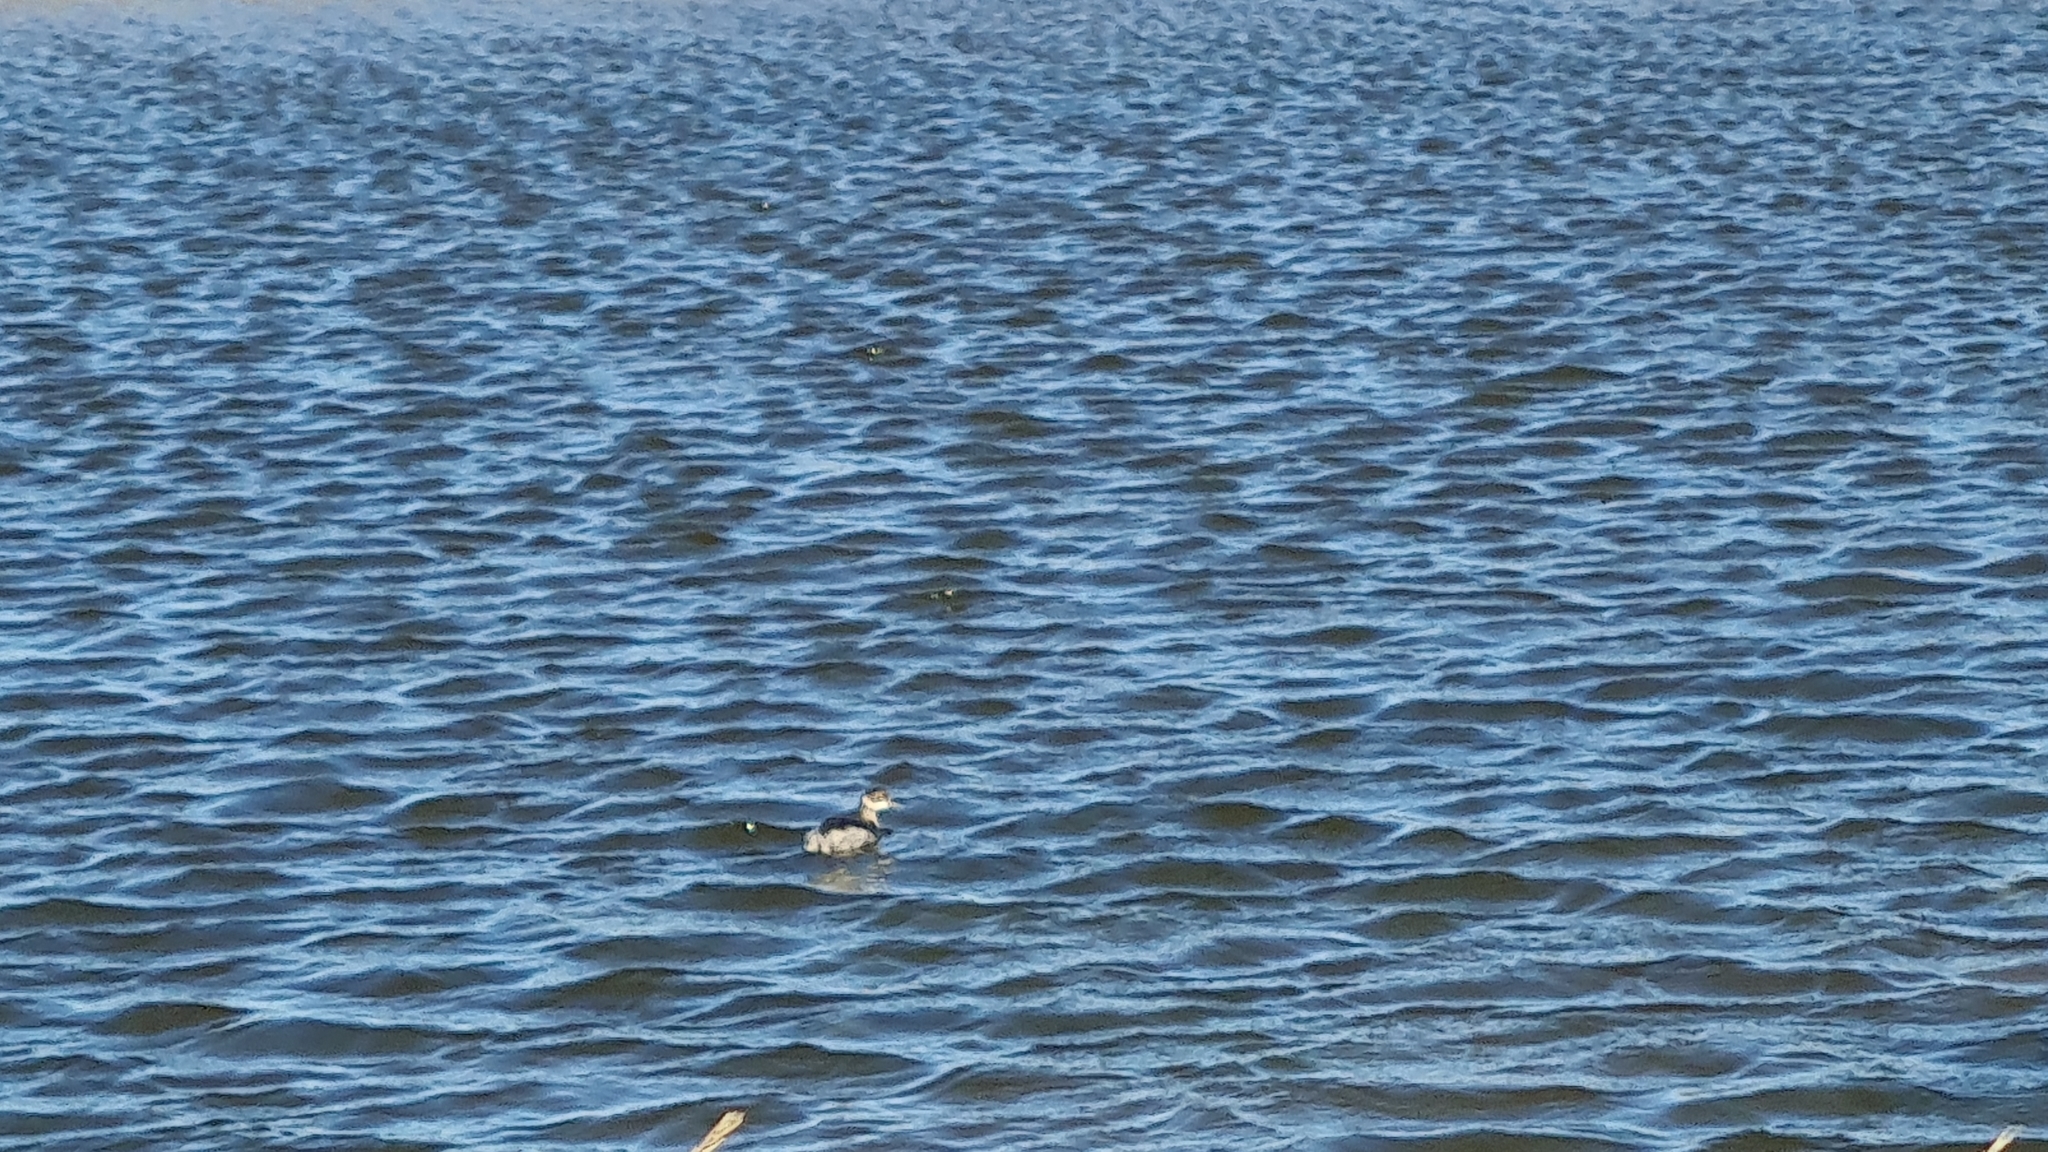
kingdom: Animalia
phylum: Chordata
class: Aves
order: Podicipediformes
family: Podicipedidae
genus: Podiceps
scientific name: Podiceps nigricollis
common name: Black-necked grebe
